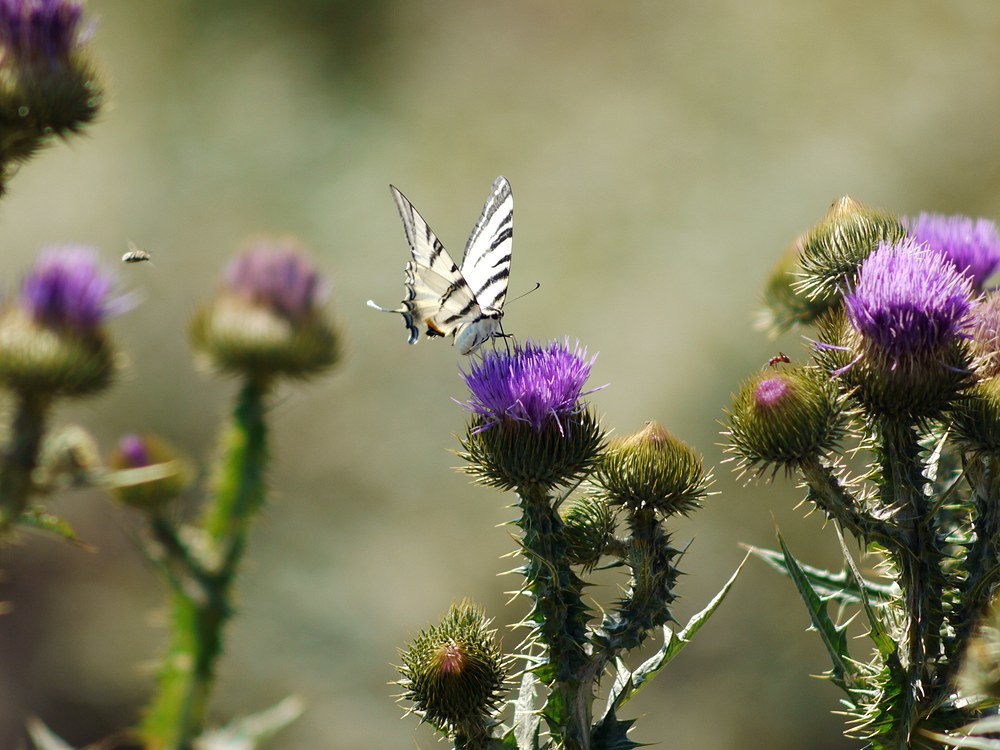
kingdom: Animalia
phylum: Arthropoda
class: Insecta
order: Lepidoptera
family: Papilionidae
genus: Iphiclides
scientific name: Iphiclides podalirius
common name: Scarce swallowtail
